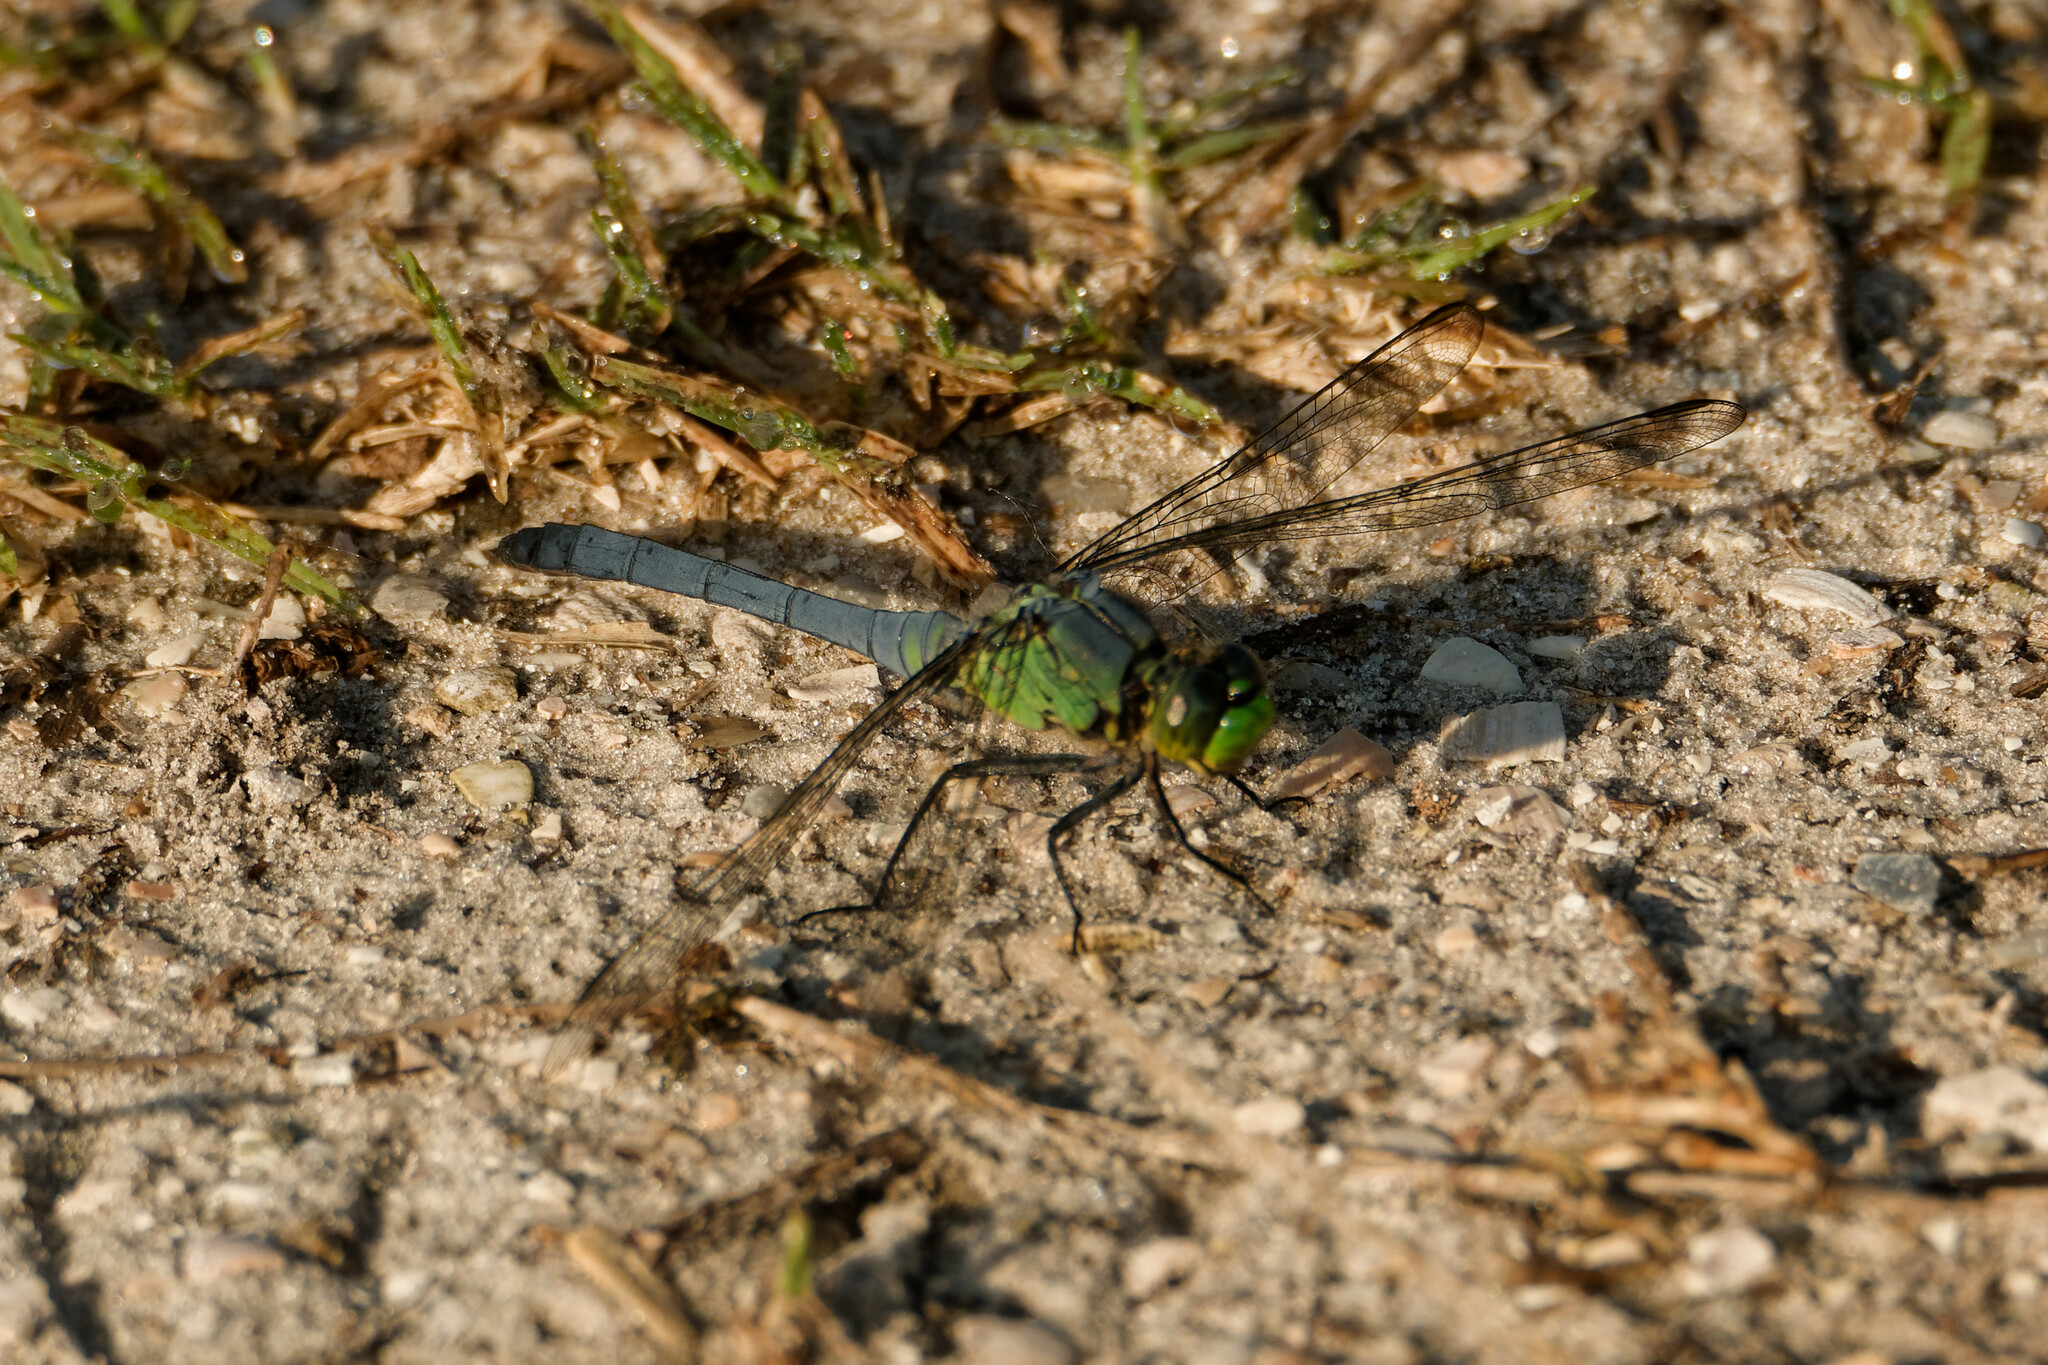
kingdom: Animalia
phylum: Arthropoda
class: Insecta
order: Odonata
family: Libellulidae
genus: Erythemis
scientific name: Erythemis simplicicollis
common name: Eastern pondhawk
